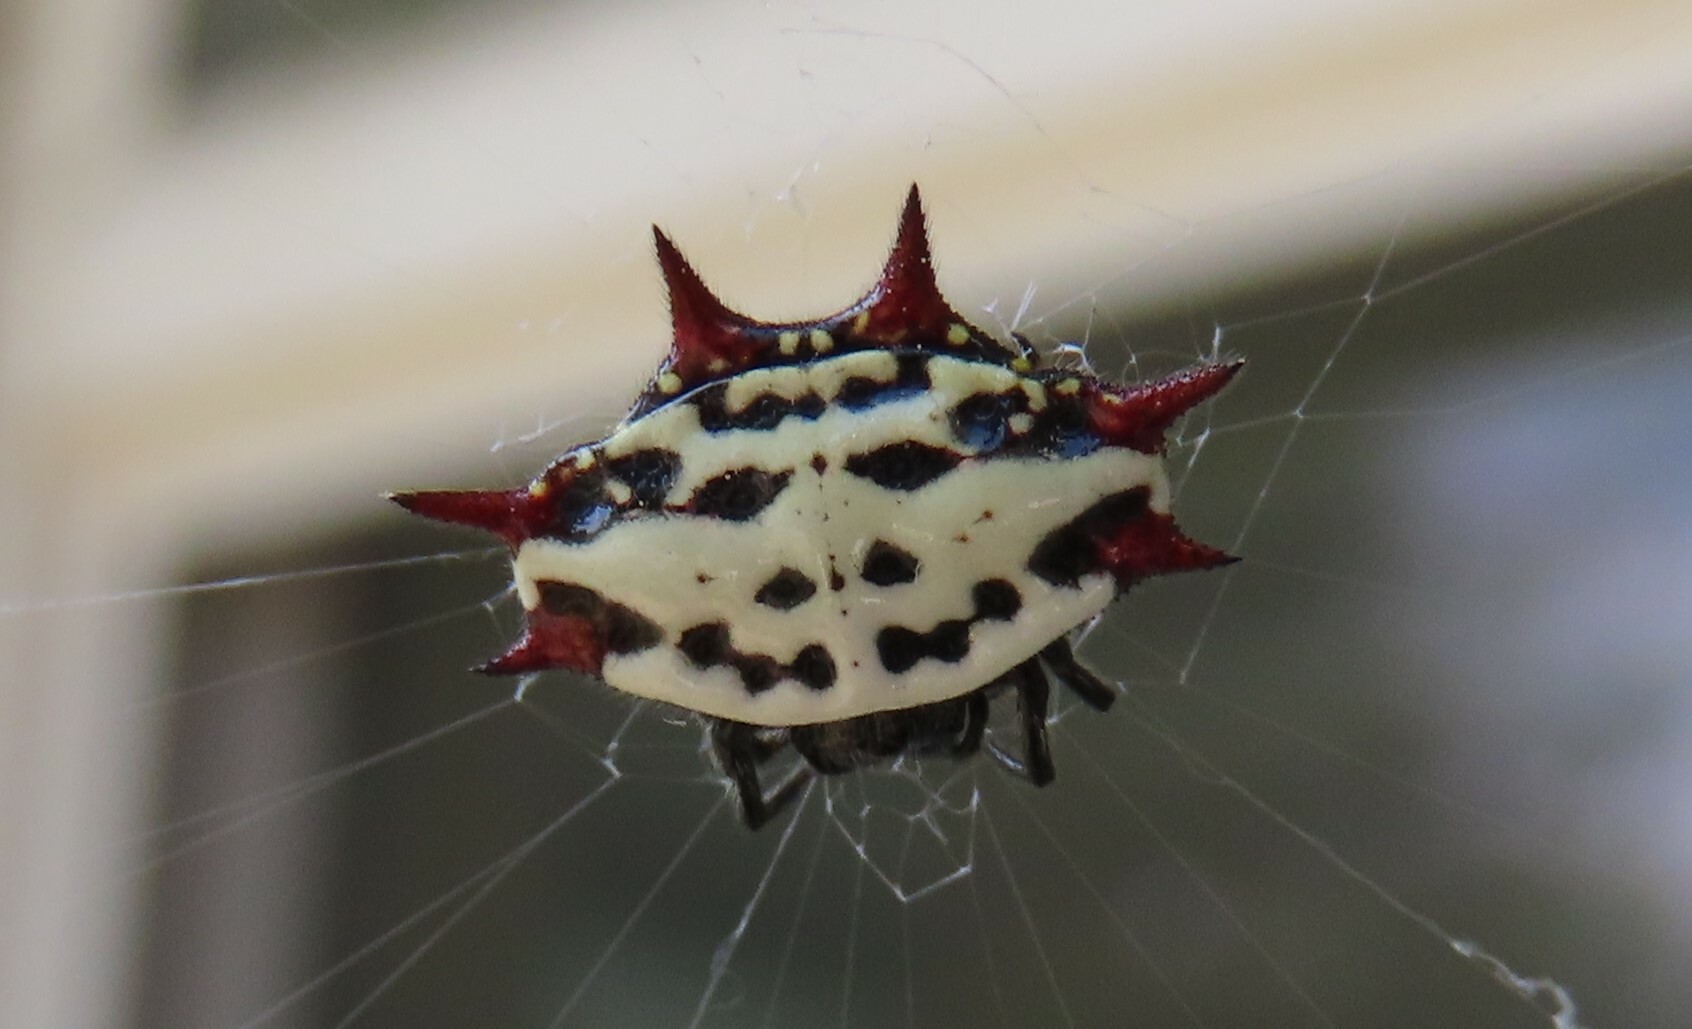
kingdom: Animalia
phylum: Arthropoda
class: Arachnida
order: Araneae
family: Araneidae
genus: Gasteracantha
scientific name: Gasteracantha cancriformis
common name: Orb weavers
